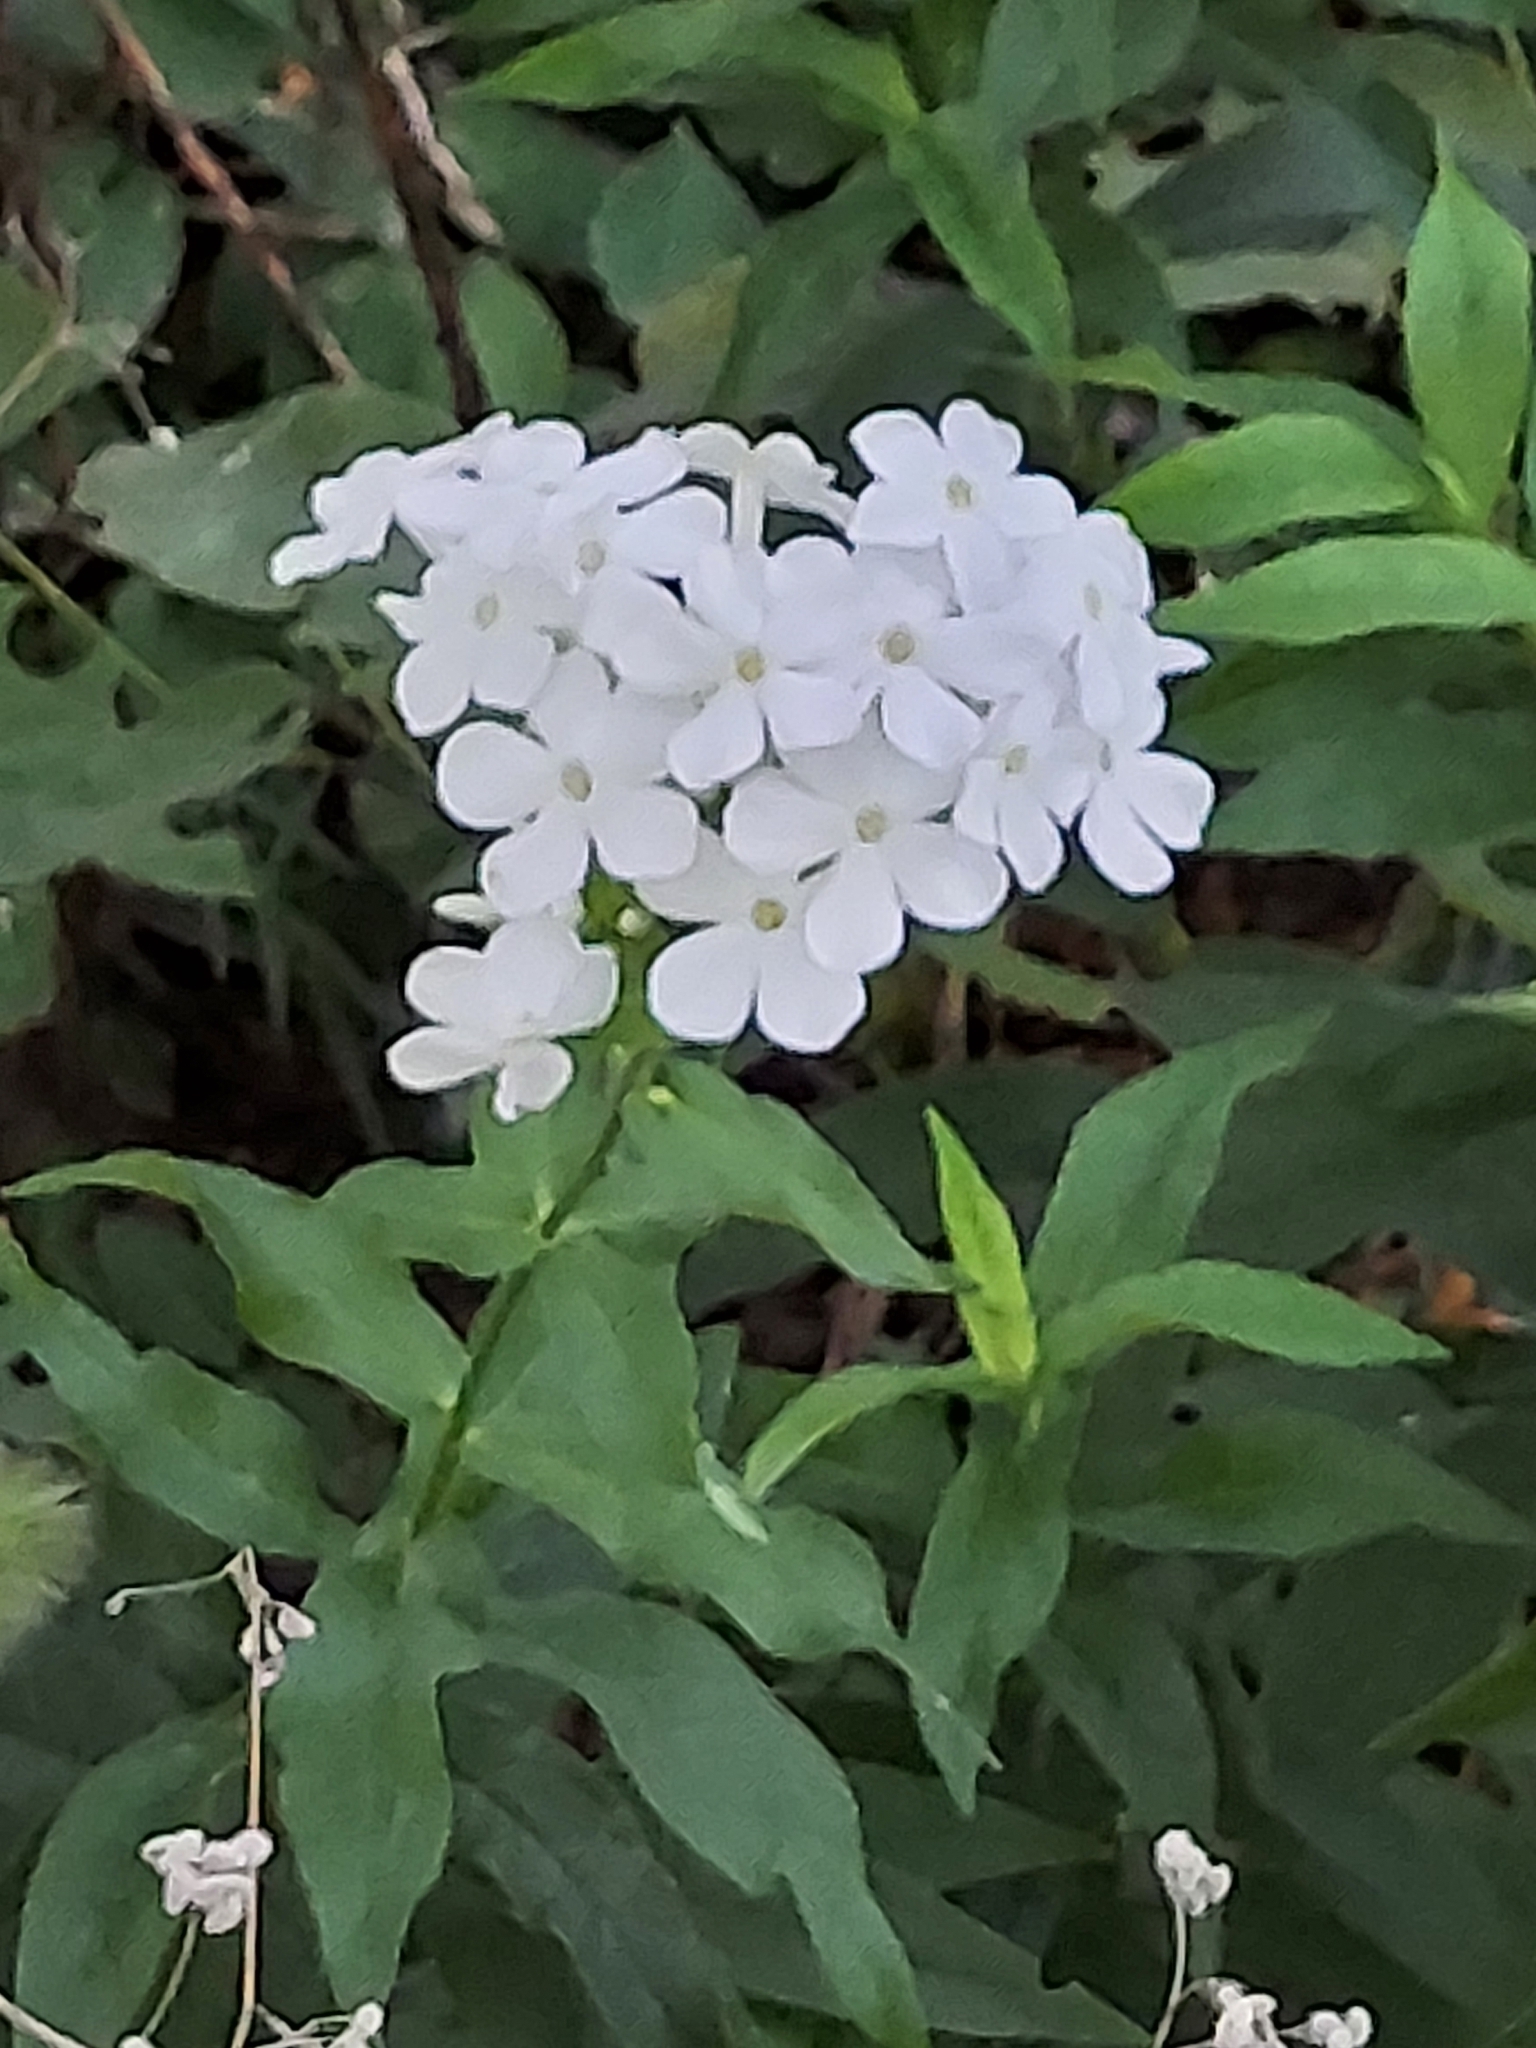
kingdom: Plantae
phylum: Tracheophyta
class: Magnoliopsida
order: Ericales
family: Polemoniaceae
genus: Phlox
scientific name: Phlox paniculata
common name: Fall phlox
